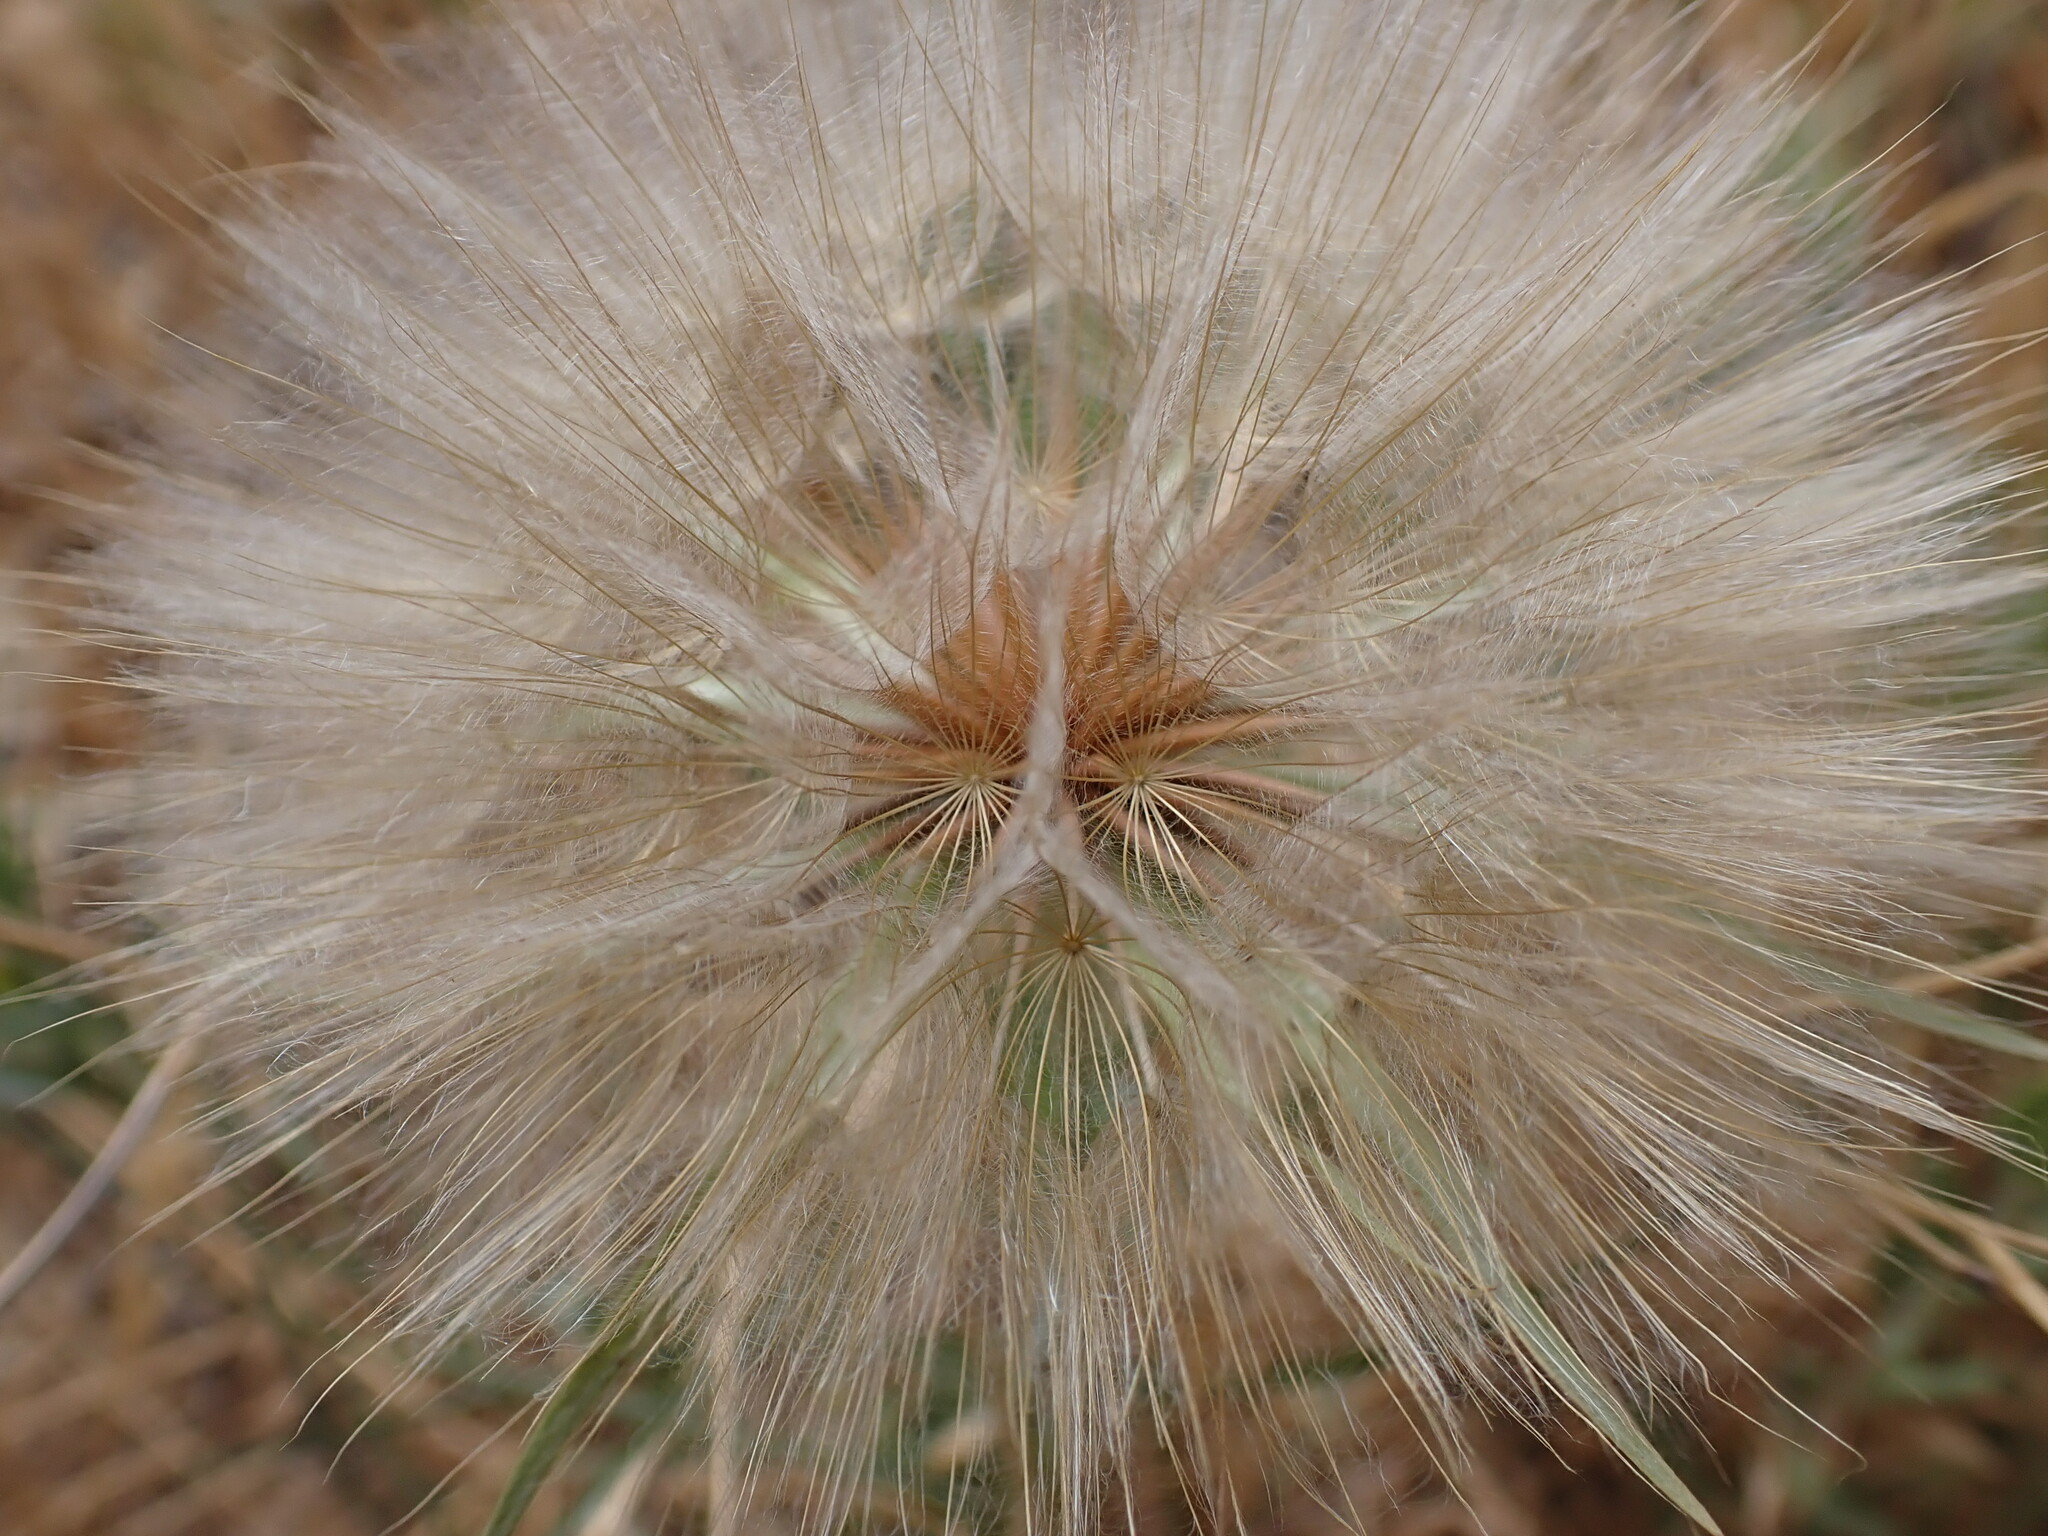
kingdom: Plantae
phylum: Tracheophyta
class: Magnoliopsida
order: Asterales
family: Asteraceae
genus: Tragopogon
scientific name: Tragopogon dubius
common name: Yellow salsify
